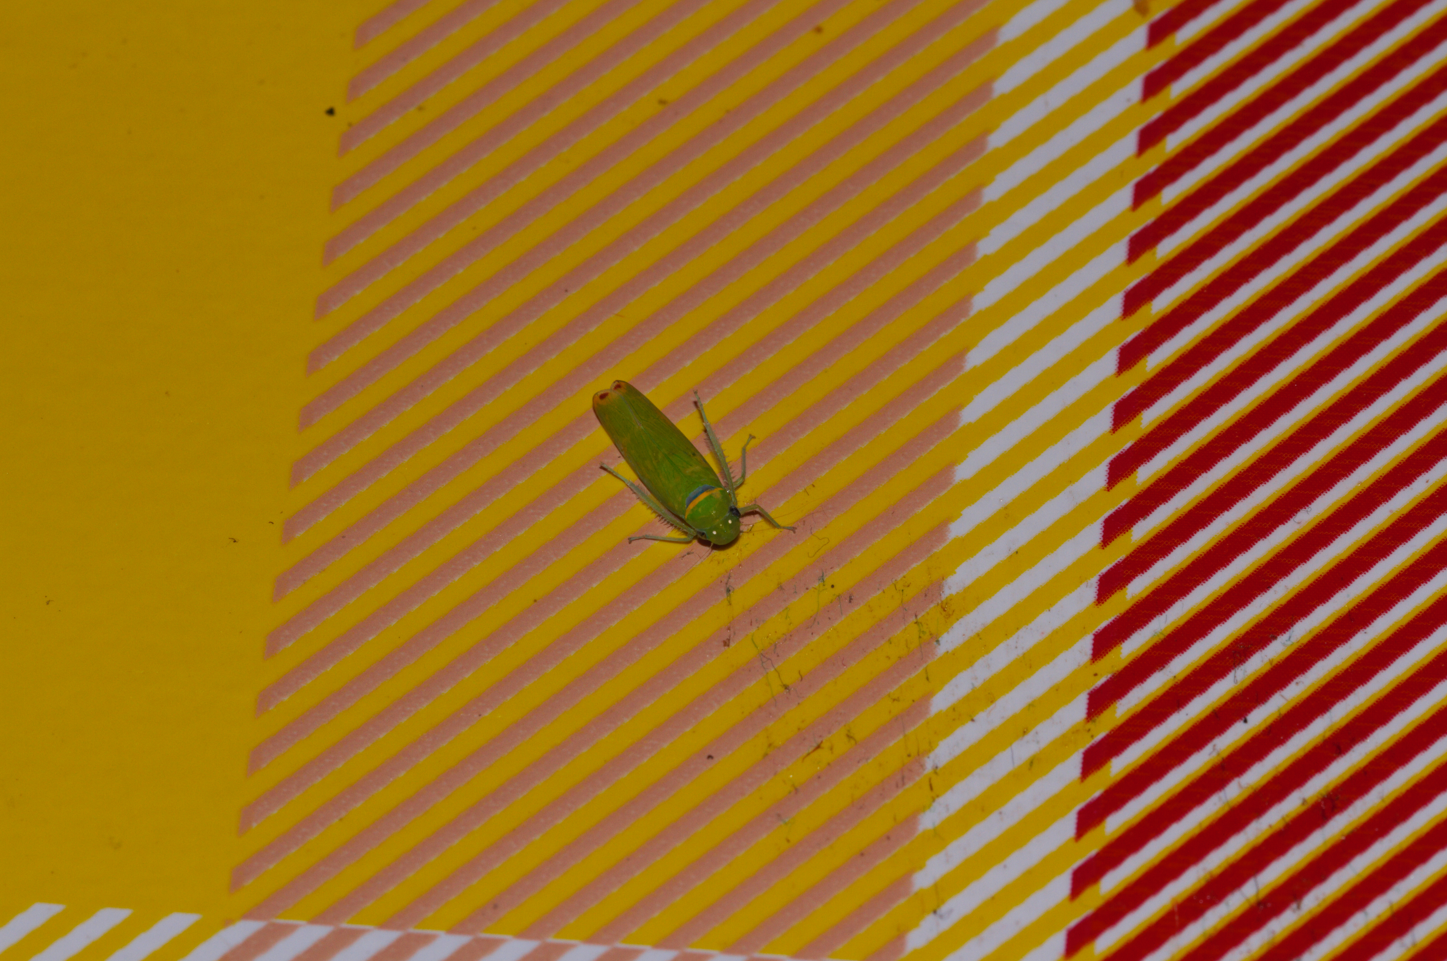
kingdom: Animalia
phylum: Arthropoda
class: Insecta
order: Hemiptera
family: Cicadellidae
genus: Alocha
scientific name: Alocha sordida
